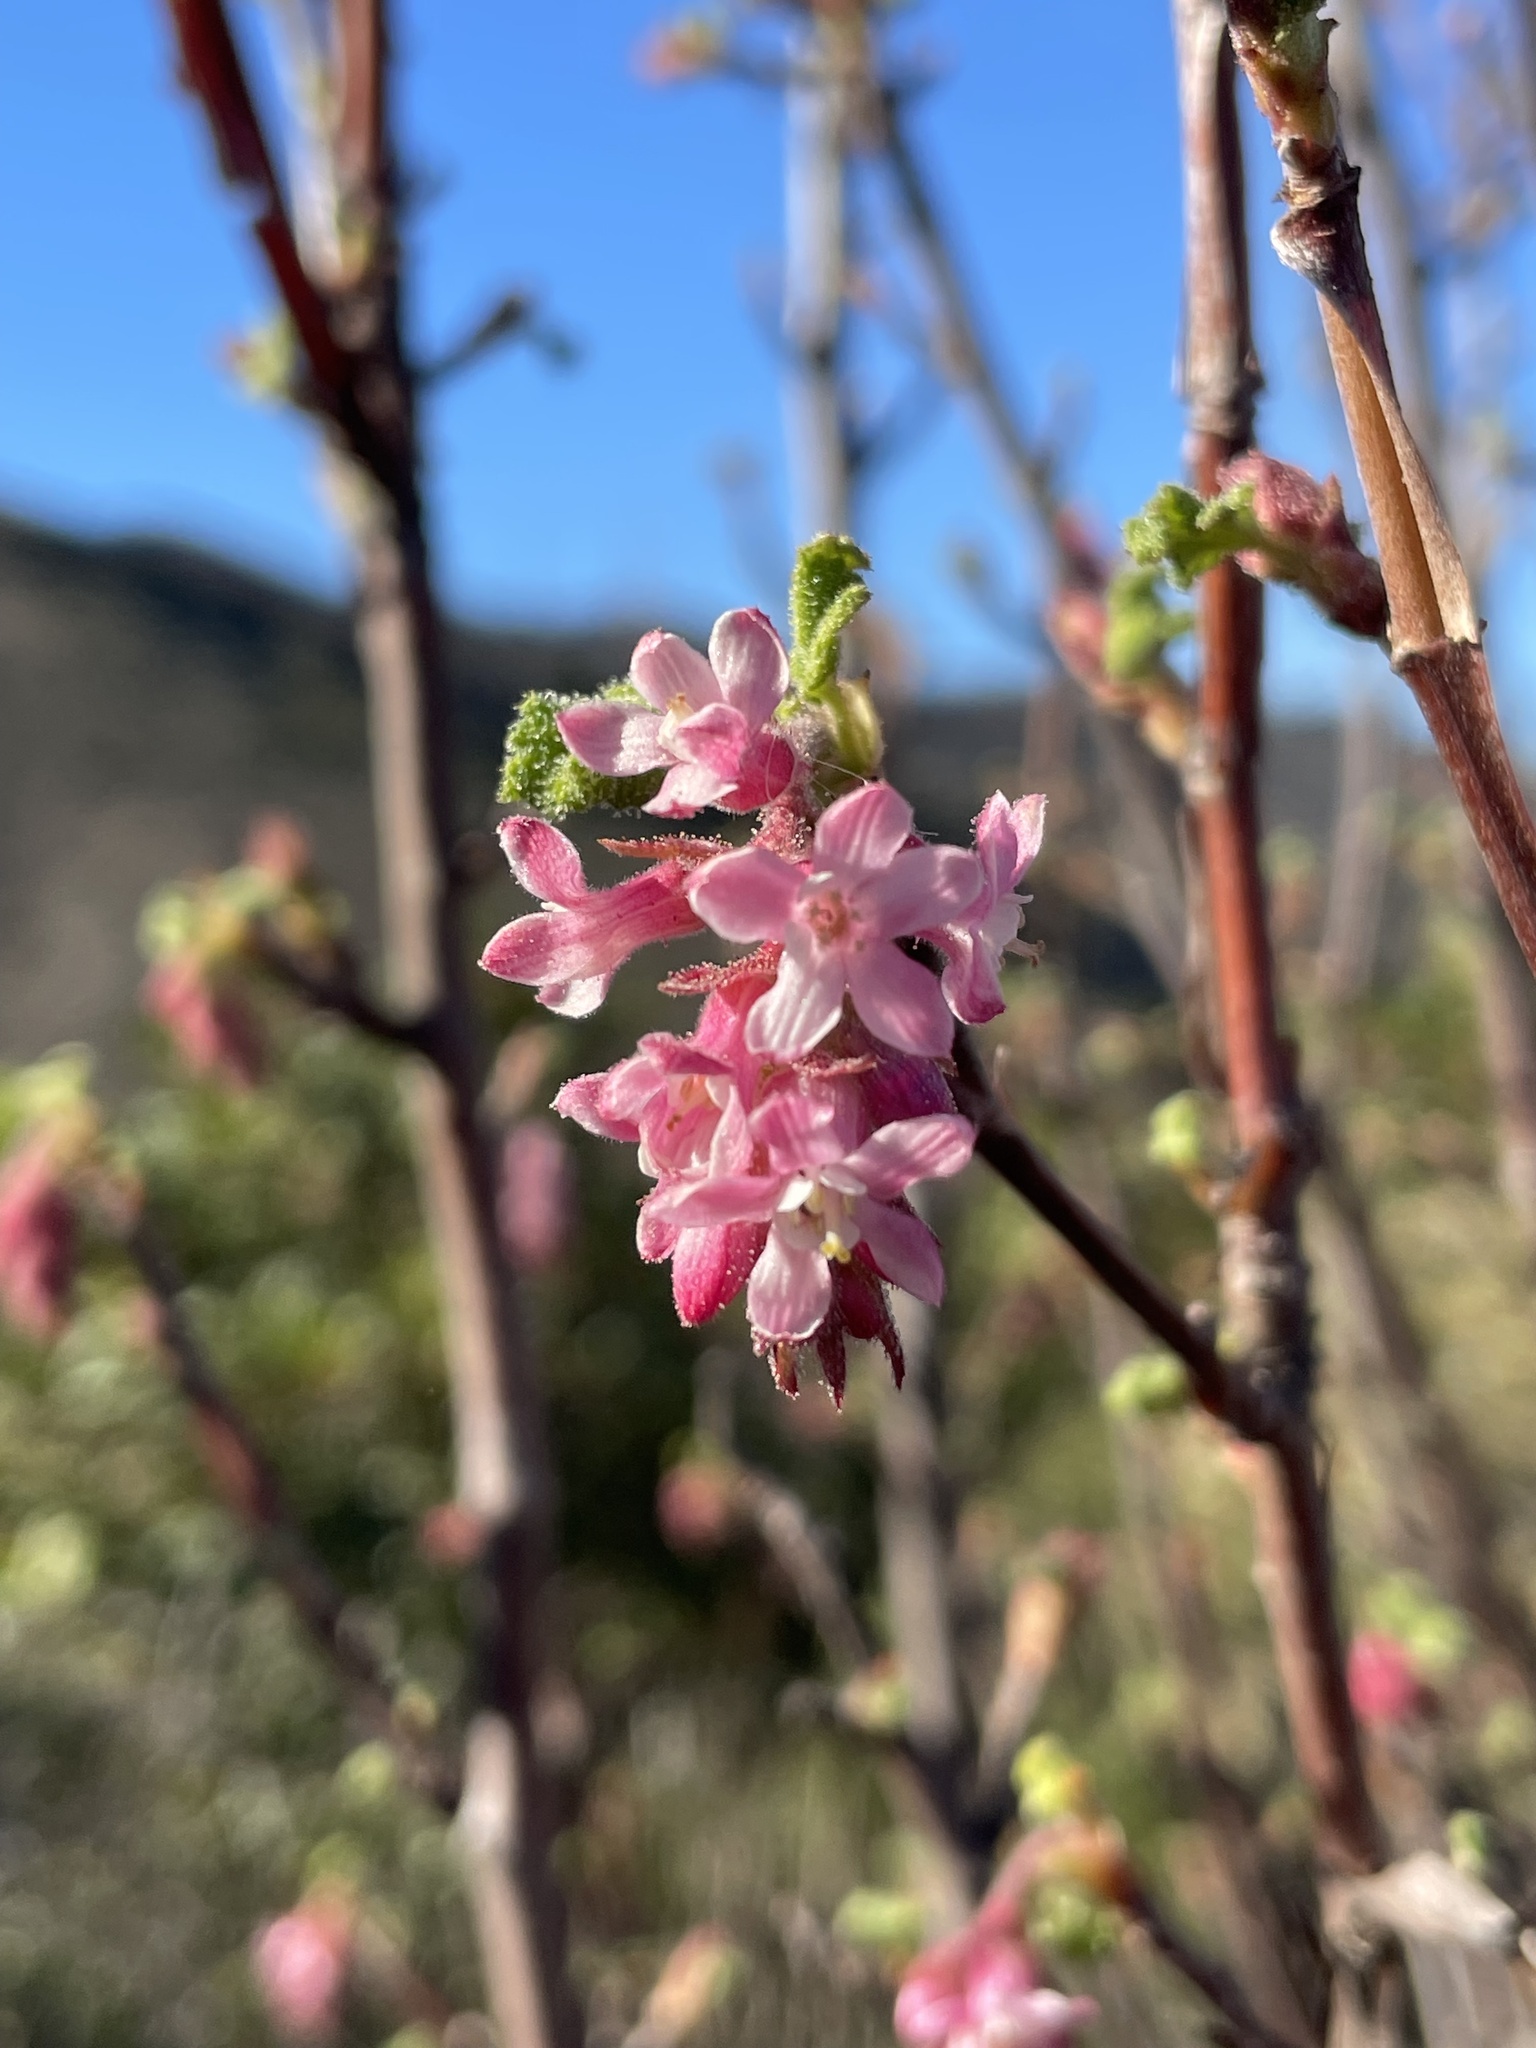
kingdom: Plantae
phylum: Tracheophyta
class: Magnoliopsida
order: Saxifragales
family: Grossulariaceae
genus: Ribes
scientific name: Ribes malvaceum
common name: Chaparral currant
